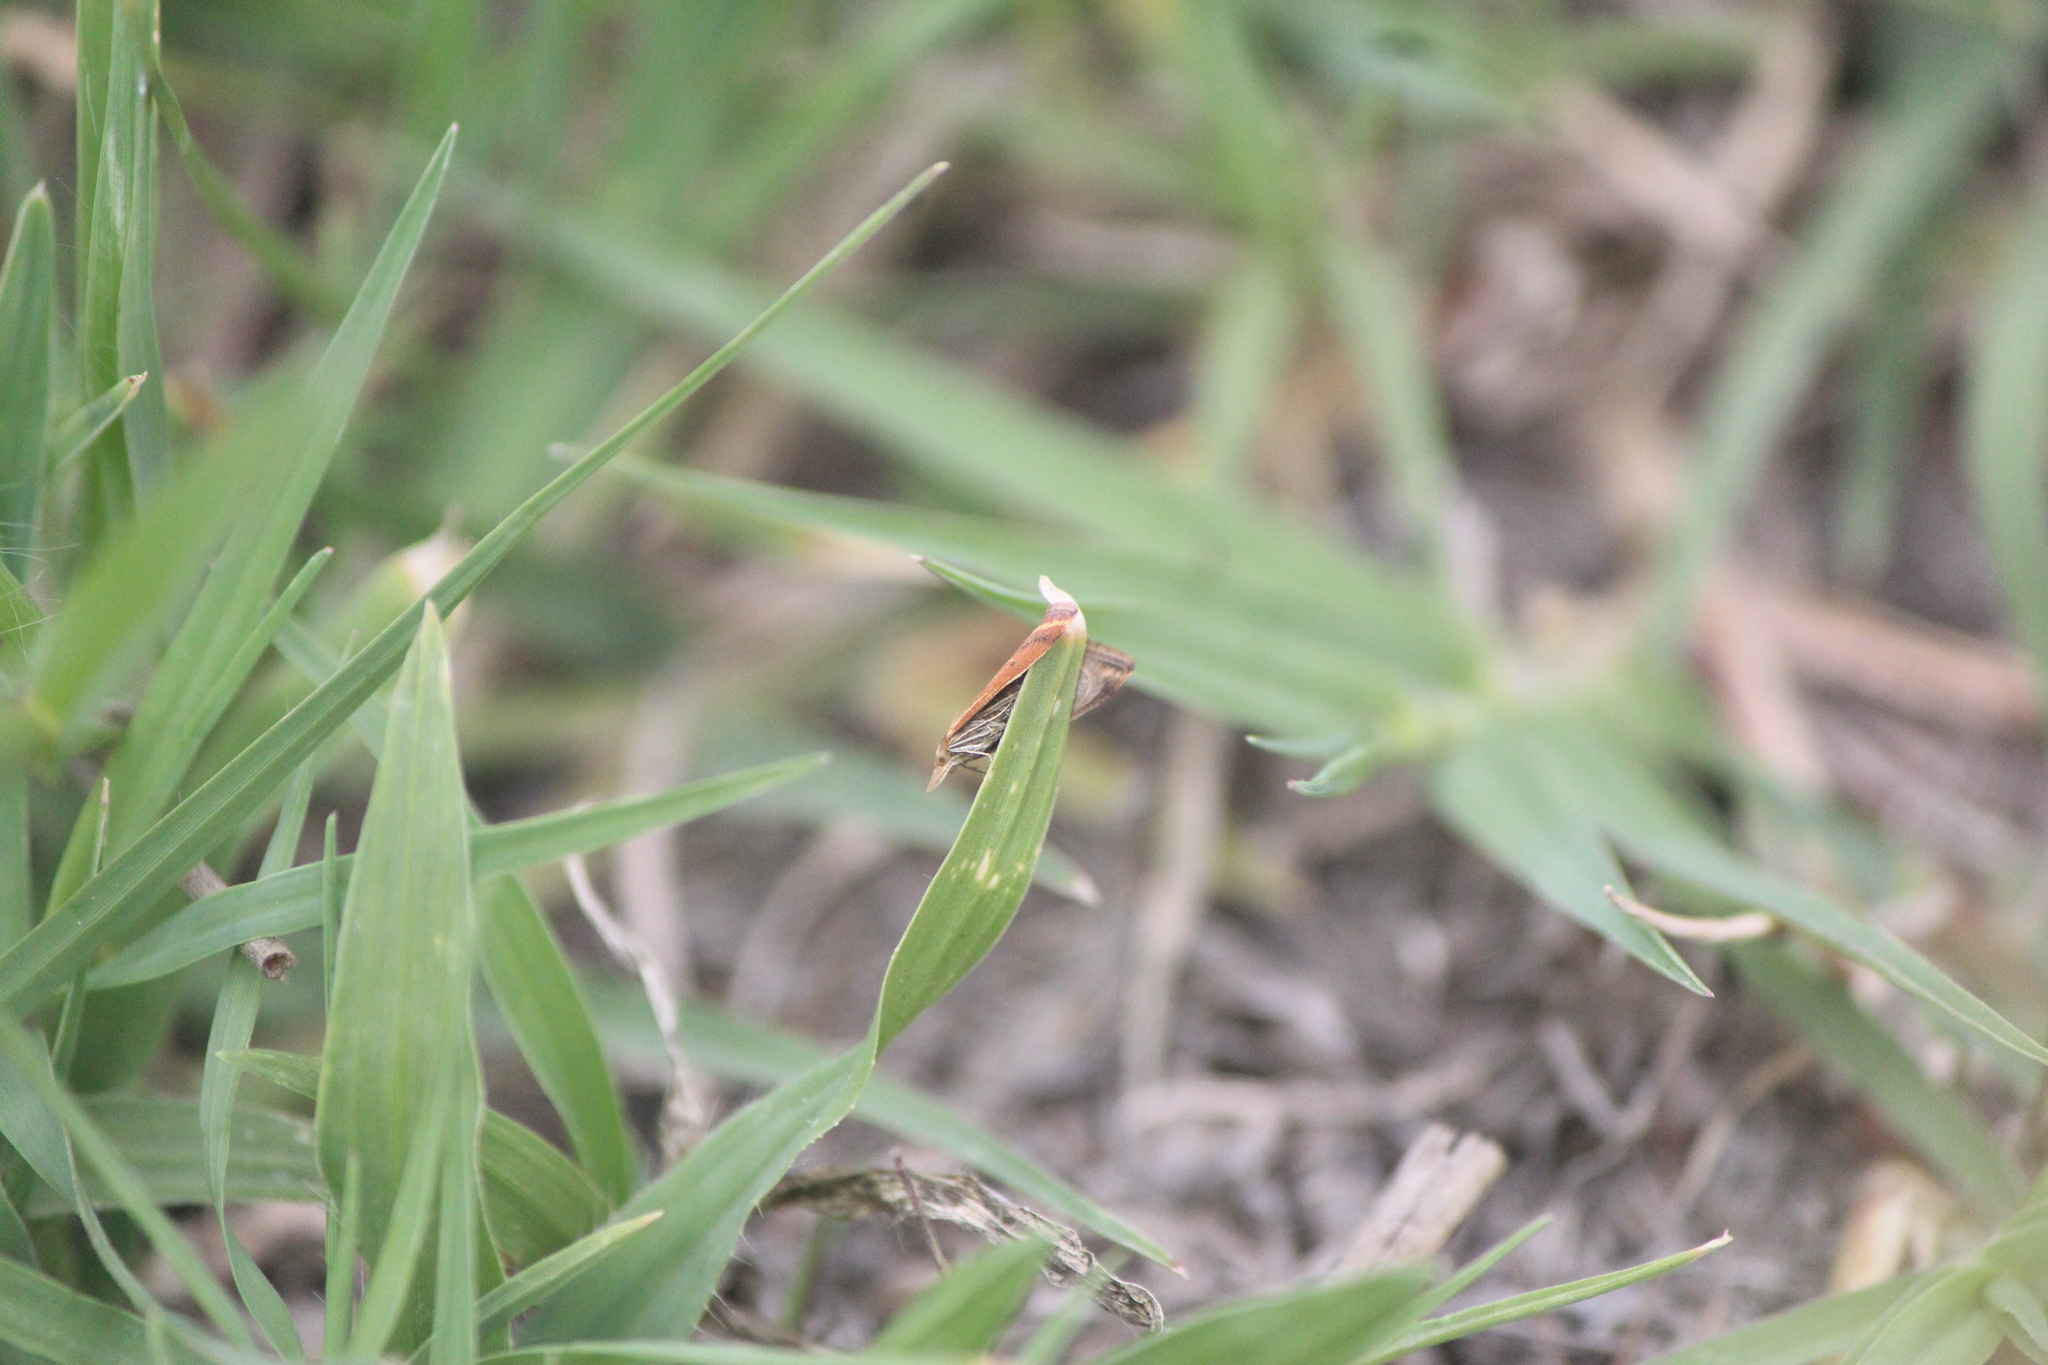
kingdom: Animalia
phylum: Arthropoda
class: Insecta
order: Lepidoptera
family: Crambidae
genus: Microtheoris
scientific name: Microtheoris ophionalis
